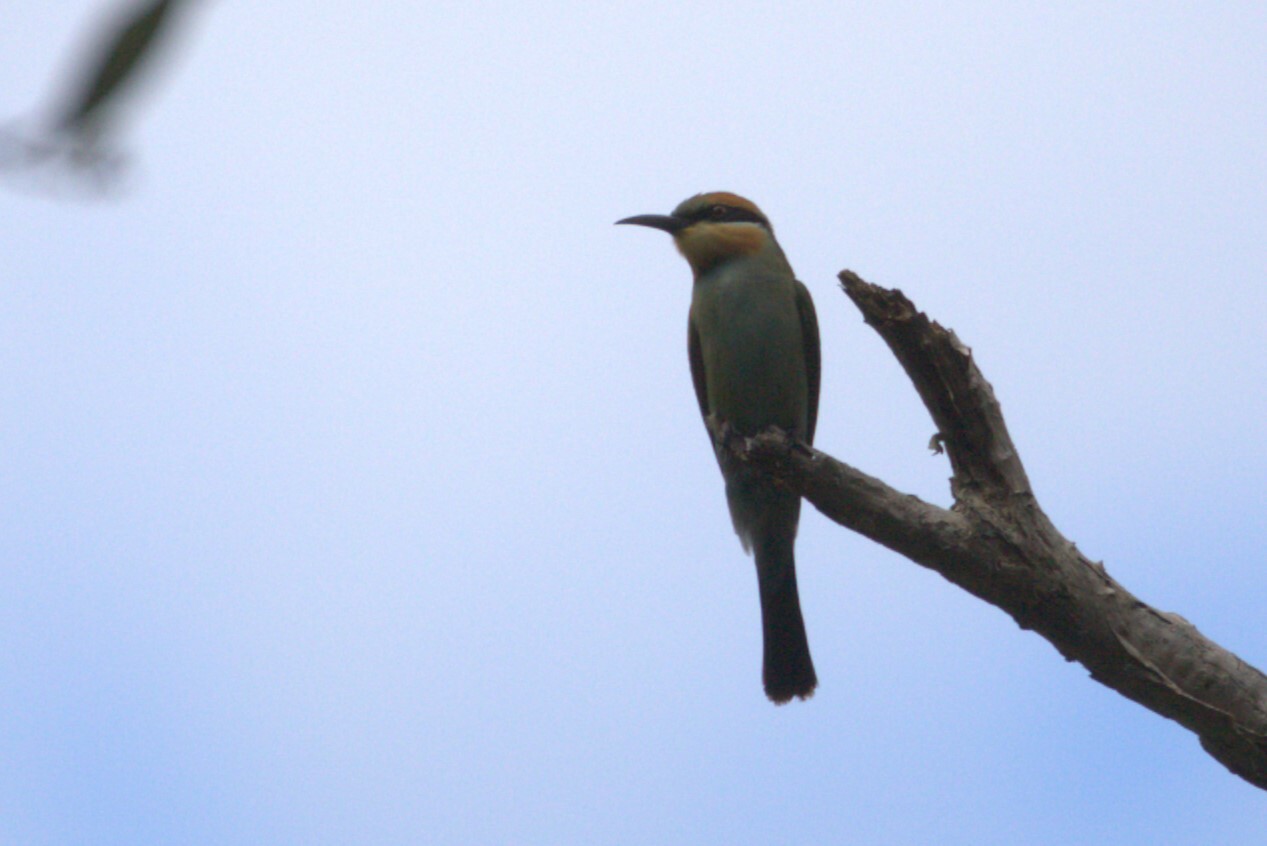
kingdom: Animalia
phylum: Chordata
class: Aves
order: Coraciiformes
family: Meropidae
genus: Merops
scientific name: Merops ornatus
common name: Rainbow bee-eater
